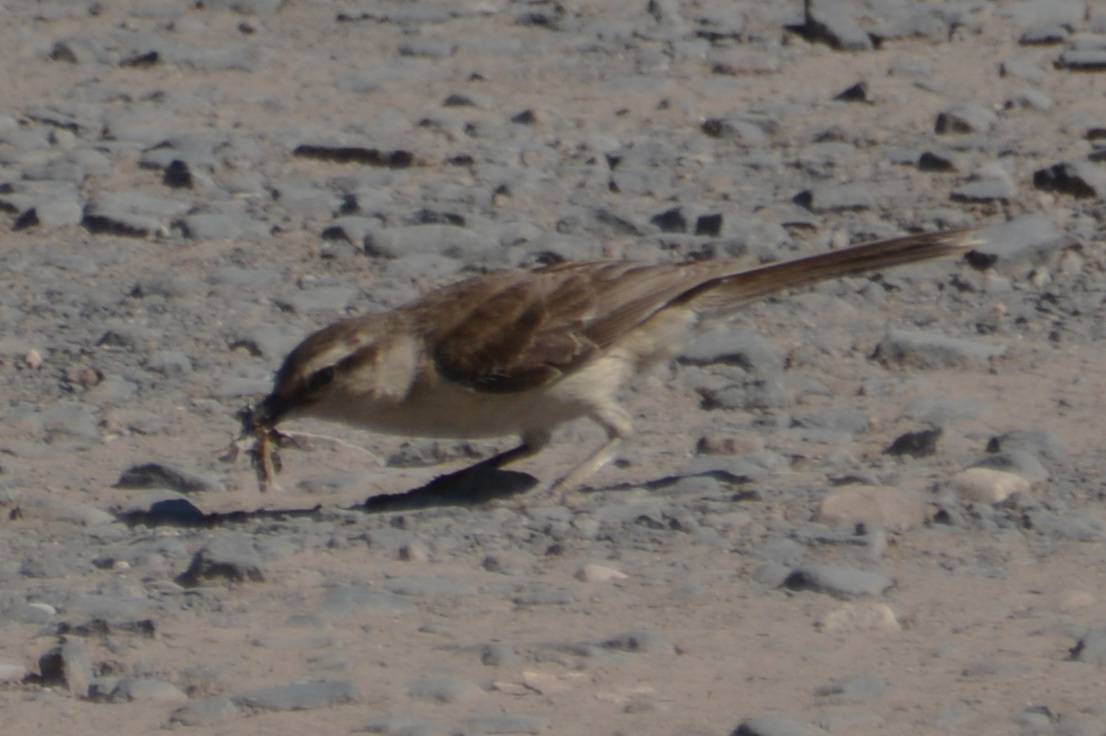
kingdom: Animalia
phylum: Chordata
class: Aves
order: Passeriformes
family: Mimidae
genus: Mimus
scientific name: Mimus saturninus
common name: Chalk-browed mockingbird
